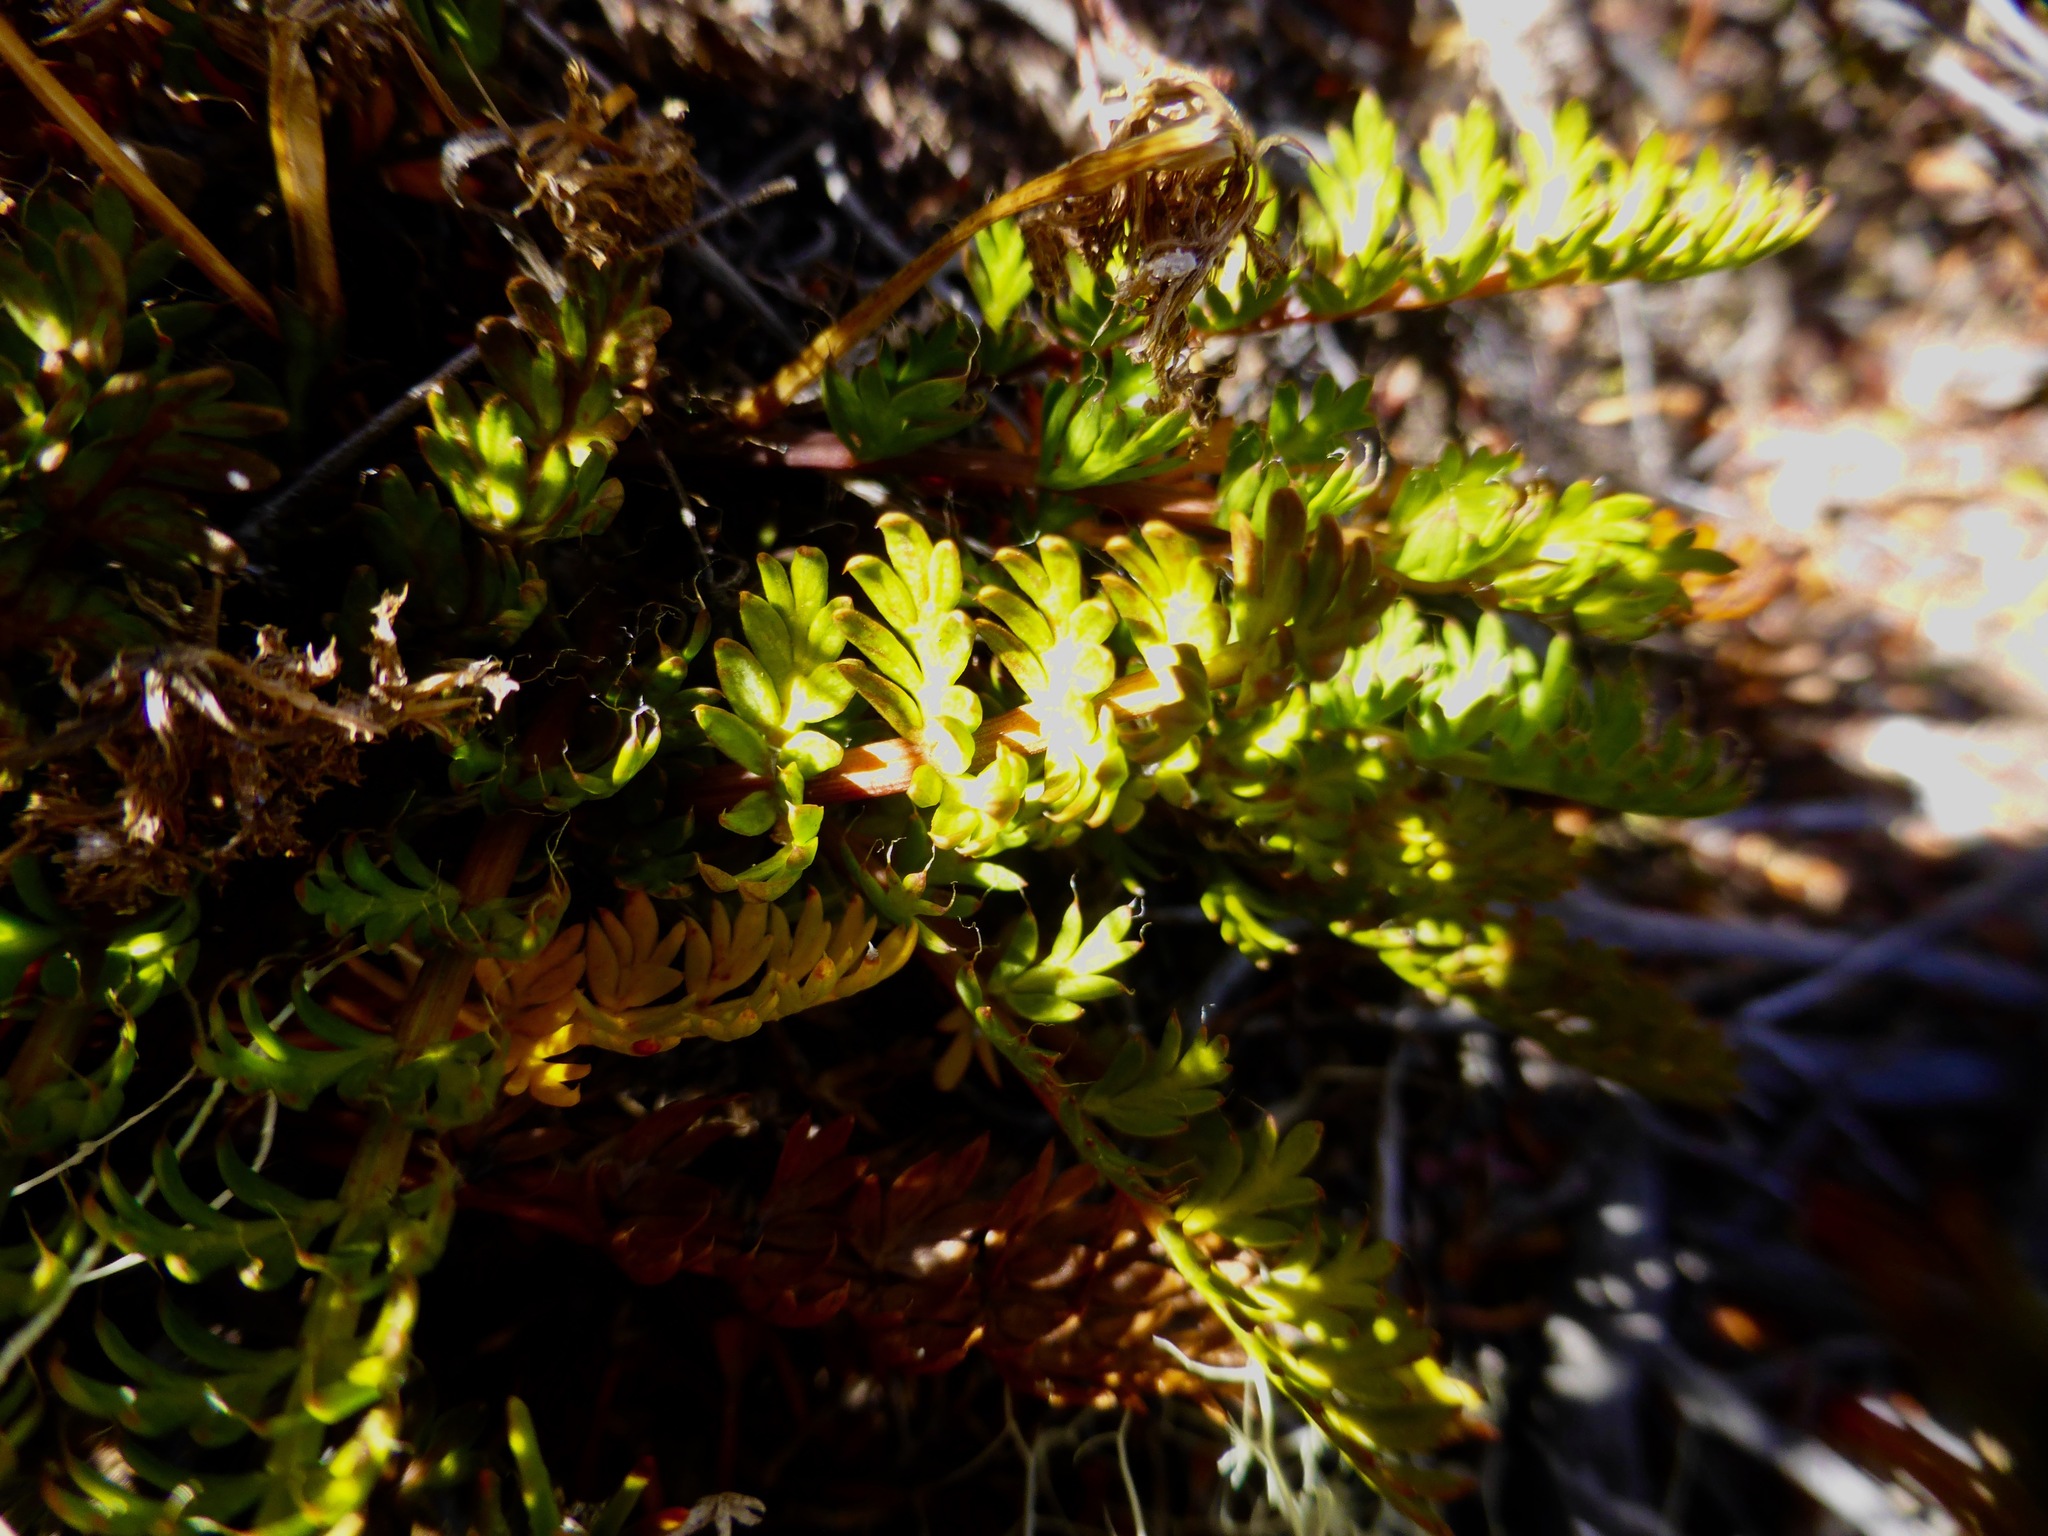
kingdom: Plantae
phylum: Tracheophyta
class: Magnoliopsida
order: Apiales
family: Apiaceae
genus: Anisotome
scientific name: Anisotome aromatica
